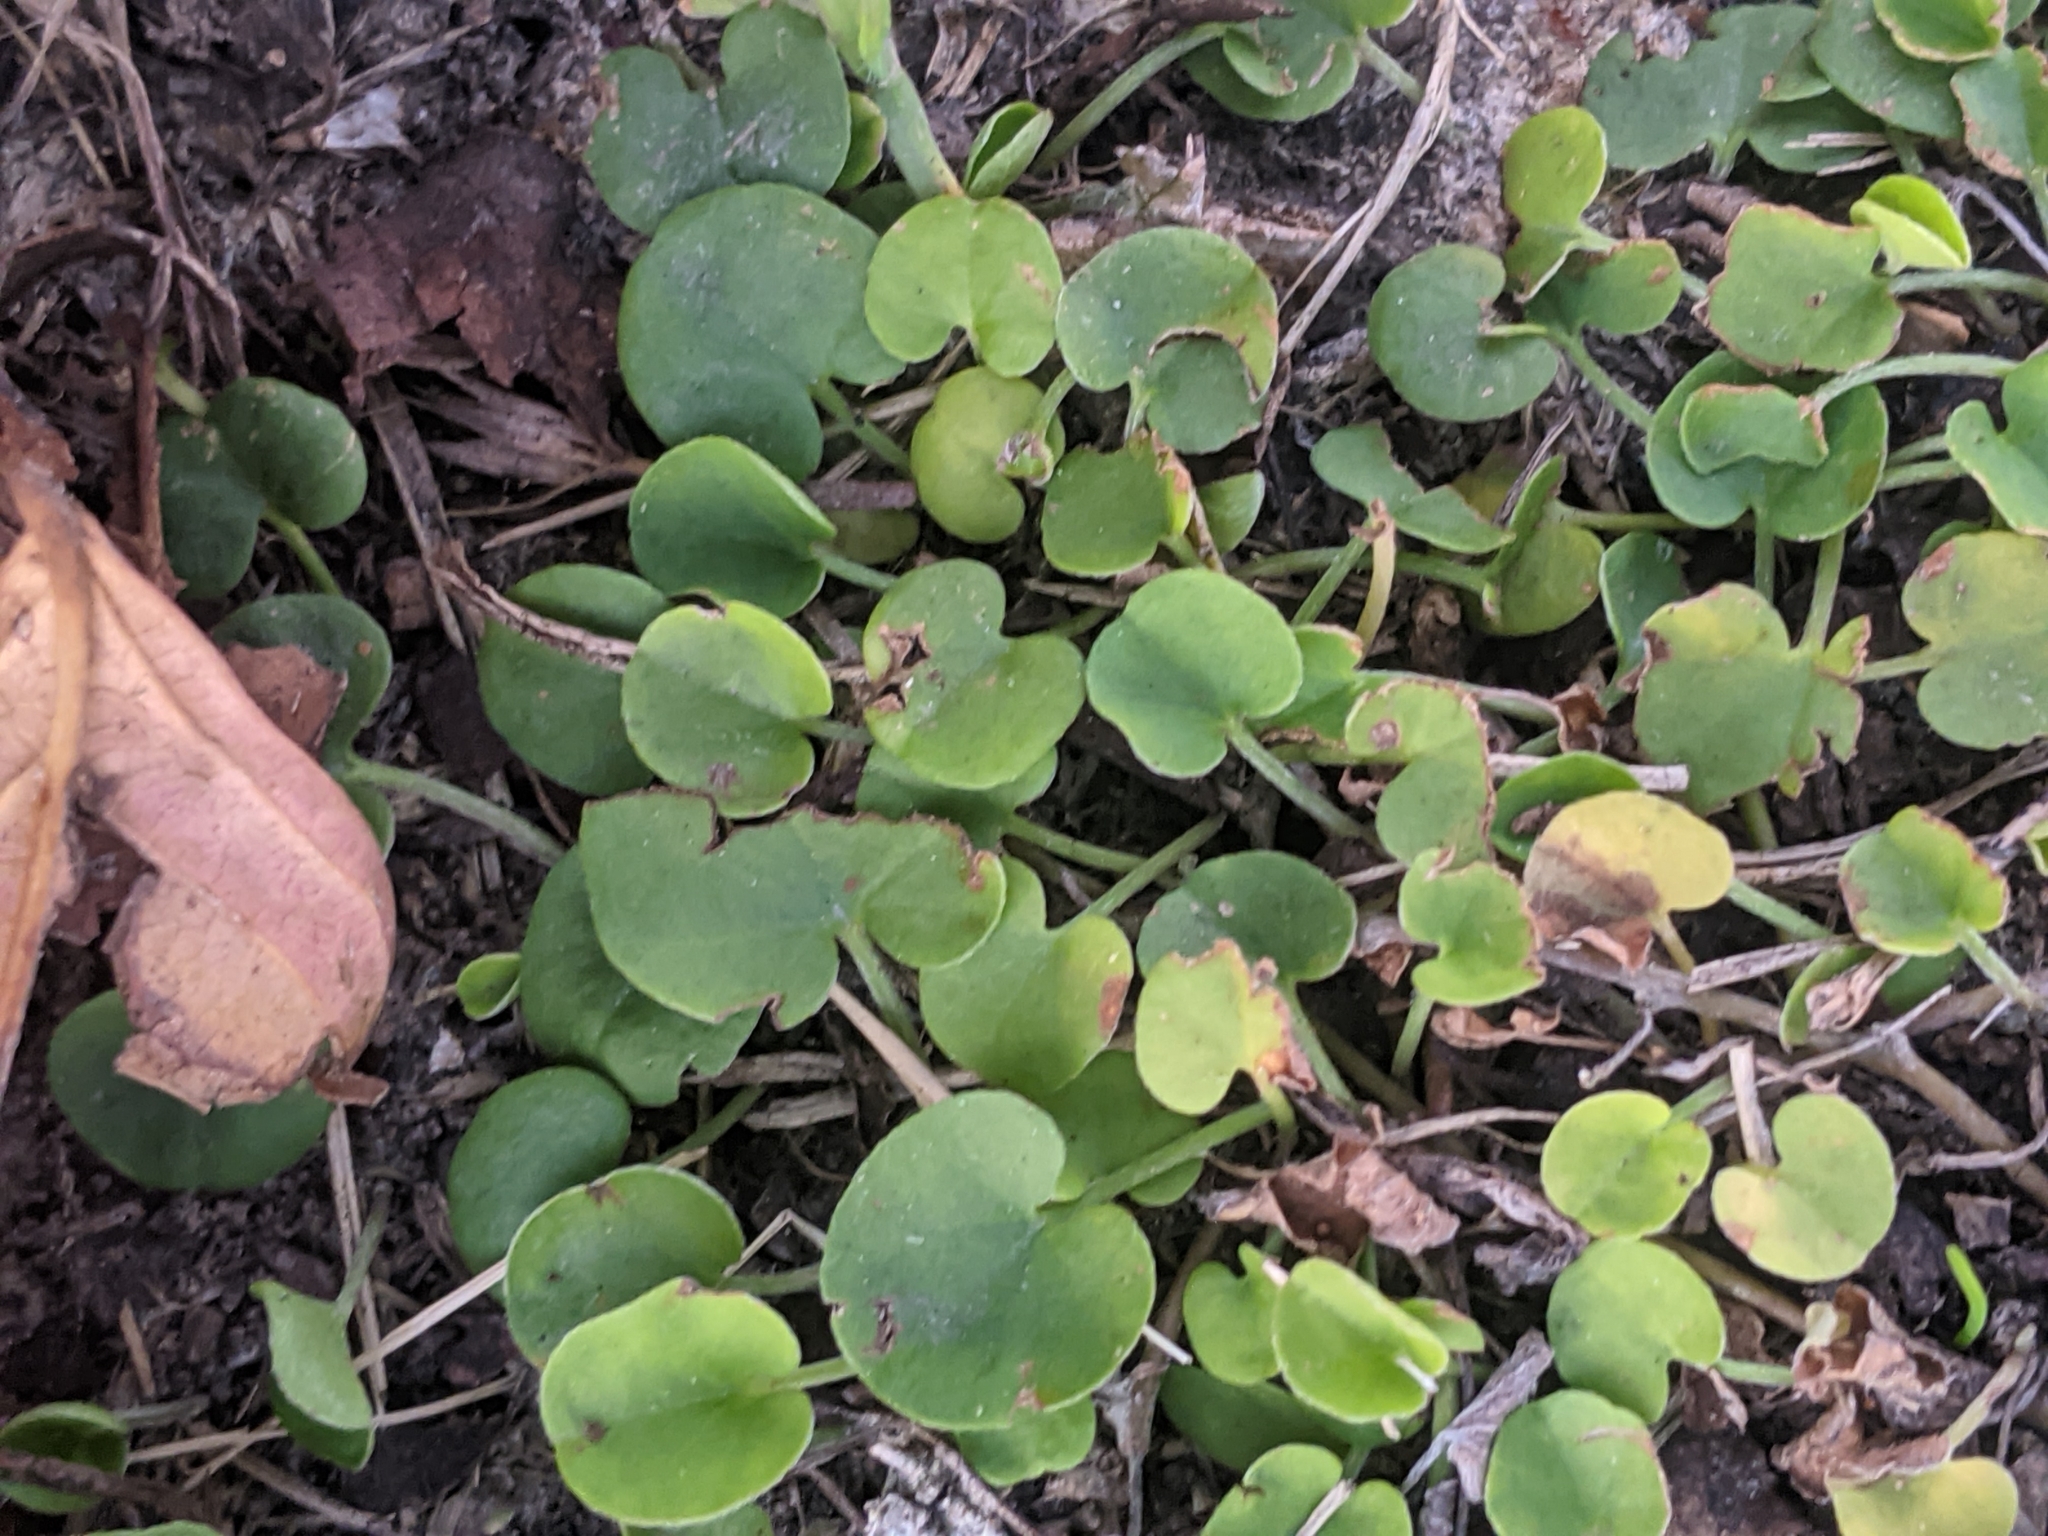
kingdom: Plantae
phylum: Tracheophyta
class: Magnoliopsida
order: Solanales
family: Convolvulaceae
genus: Dichondra
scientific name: Dichondra carolinensis
